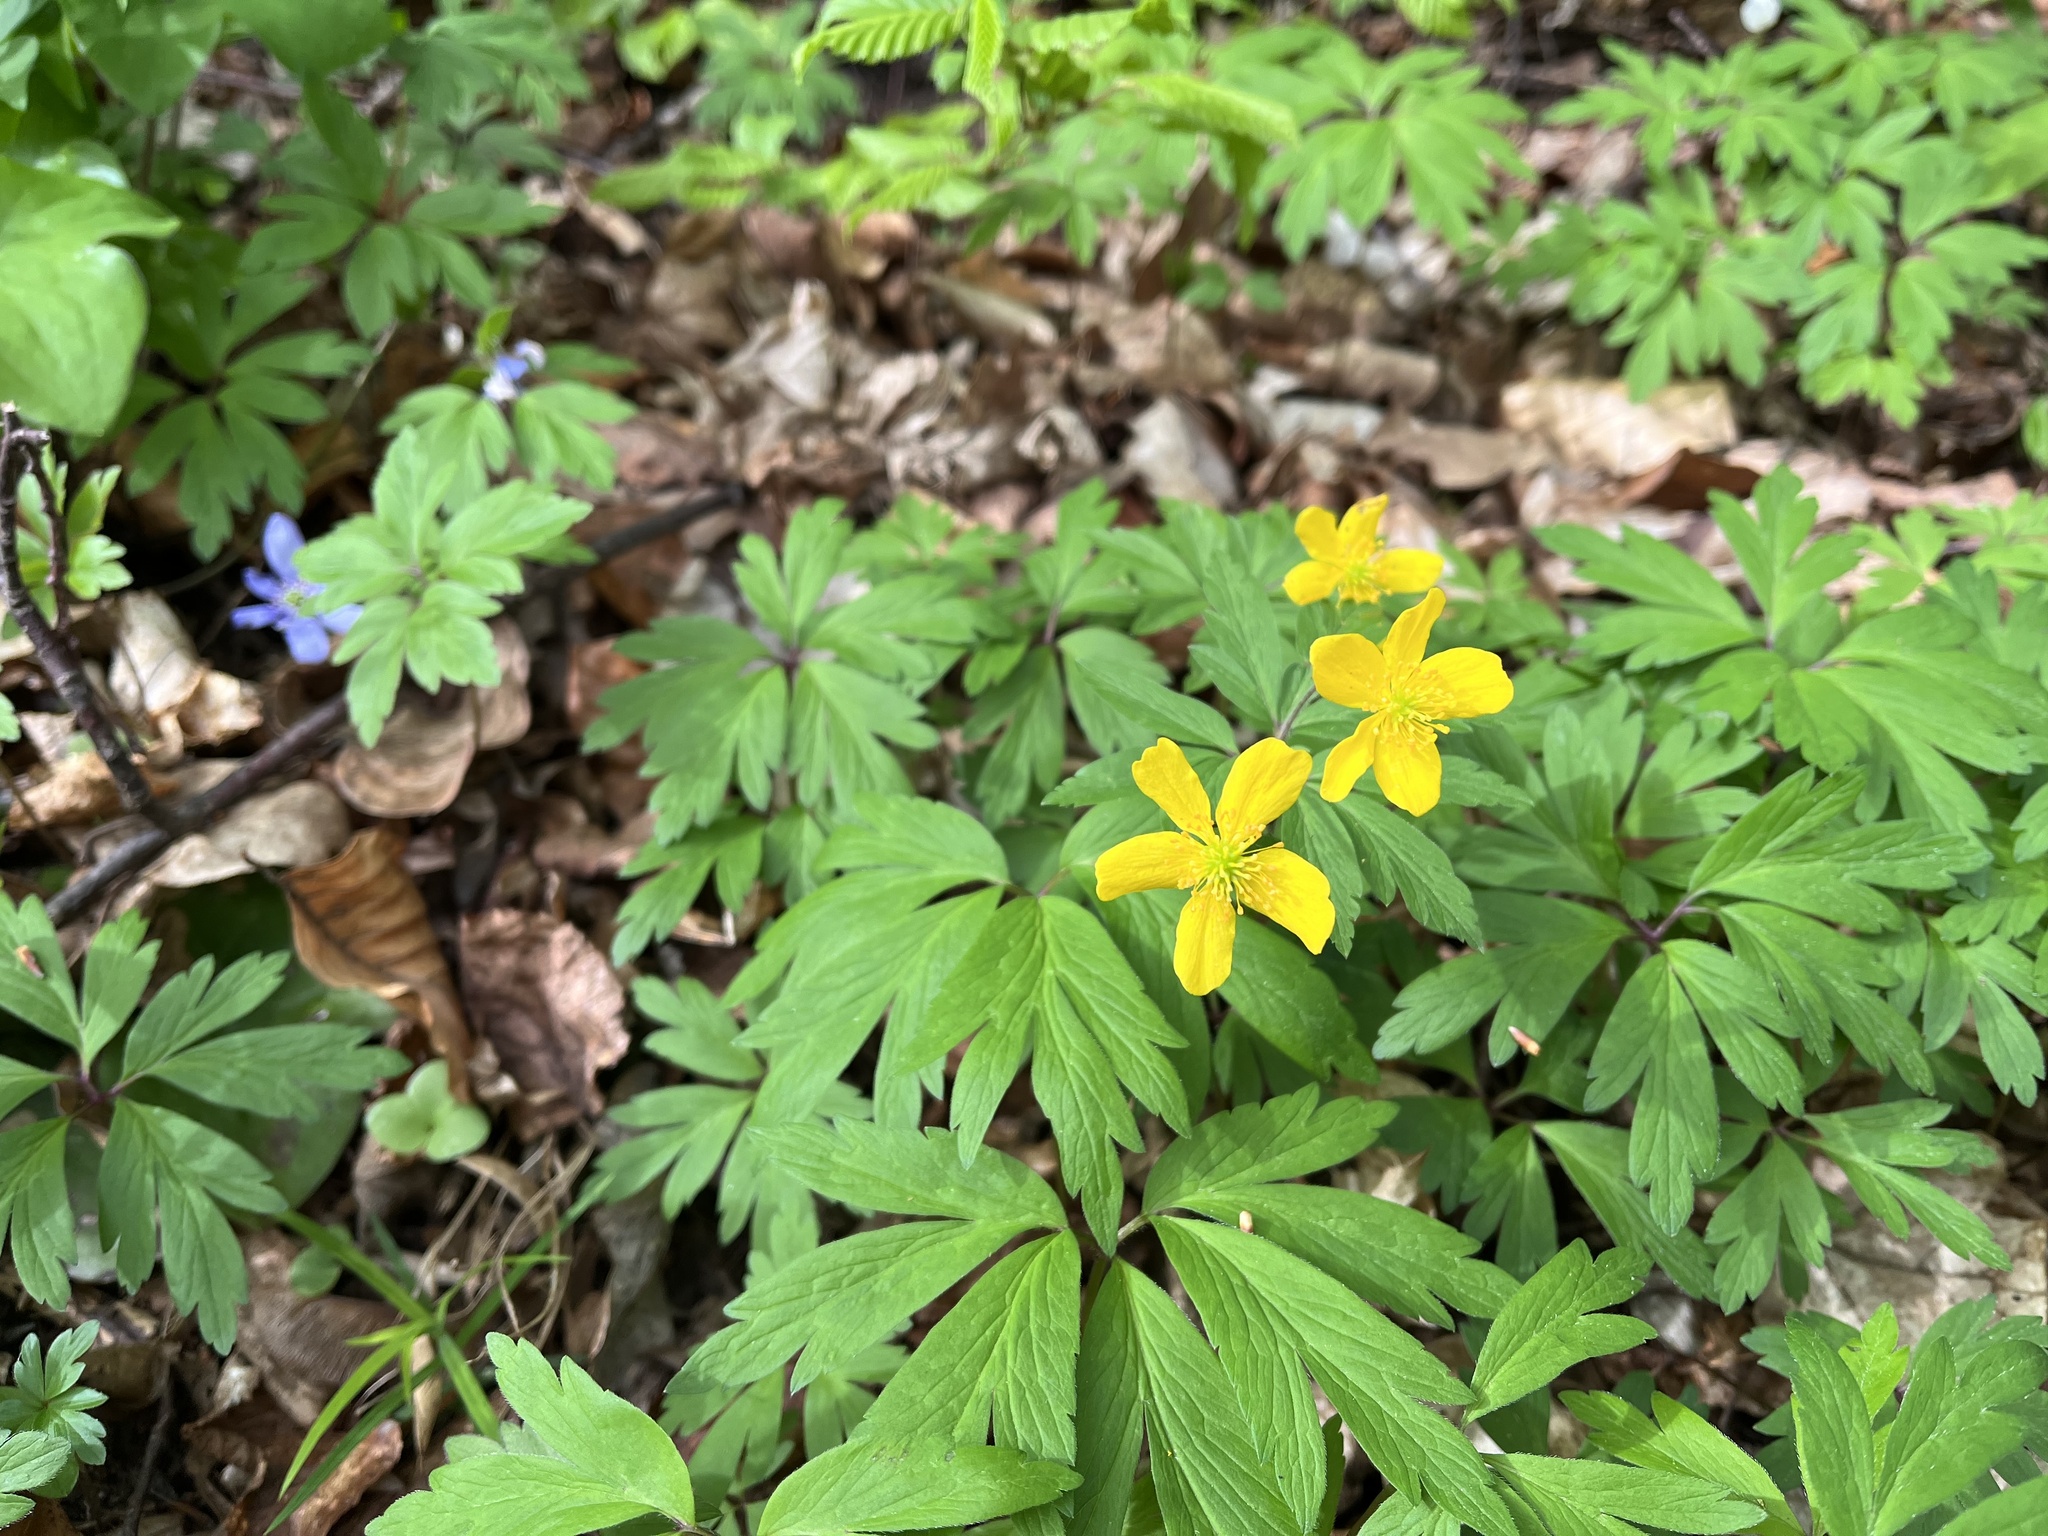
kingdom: Plantae
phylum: Tracheophyta
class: Magnoliopsida
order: Ranunculales
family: Ranunculaceae
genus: Anemone
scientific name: Anemone ranunculoides
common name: Yellow anemone
